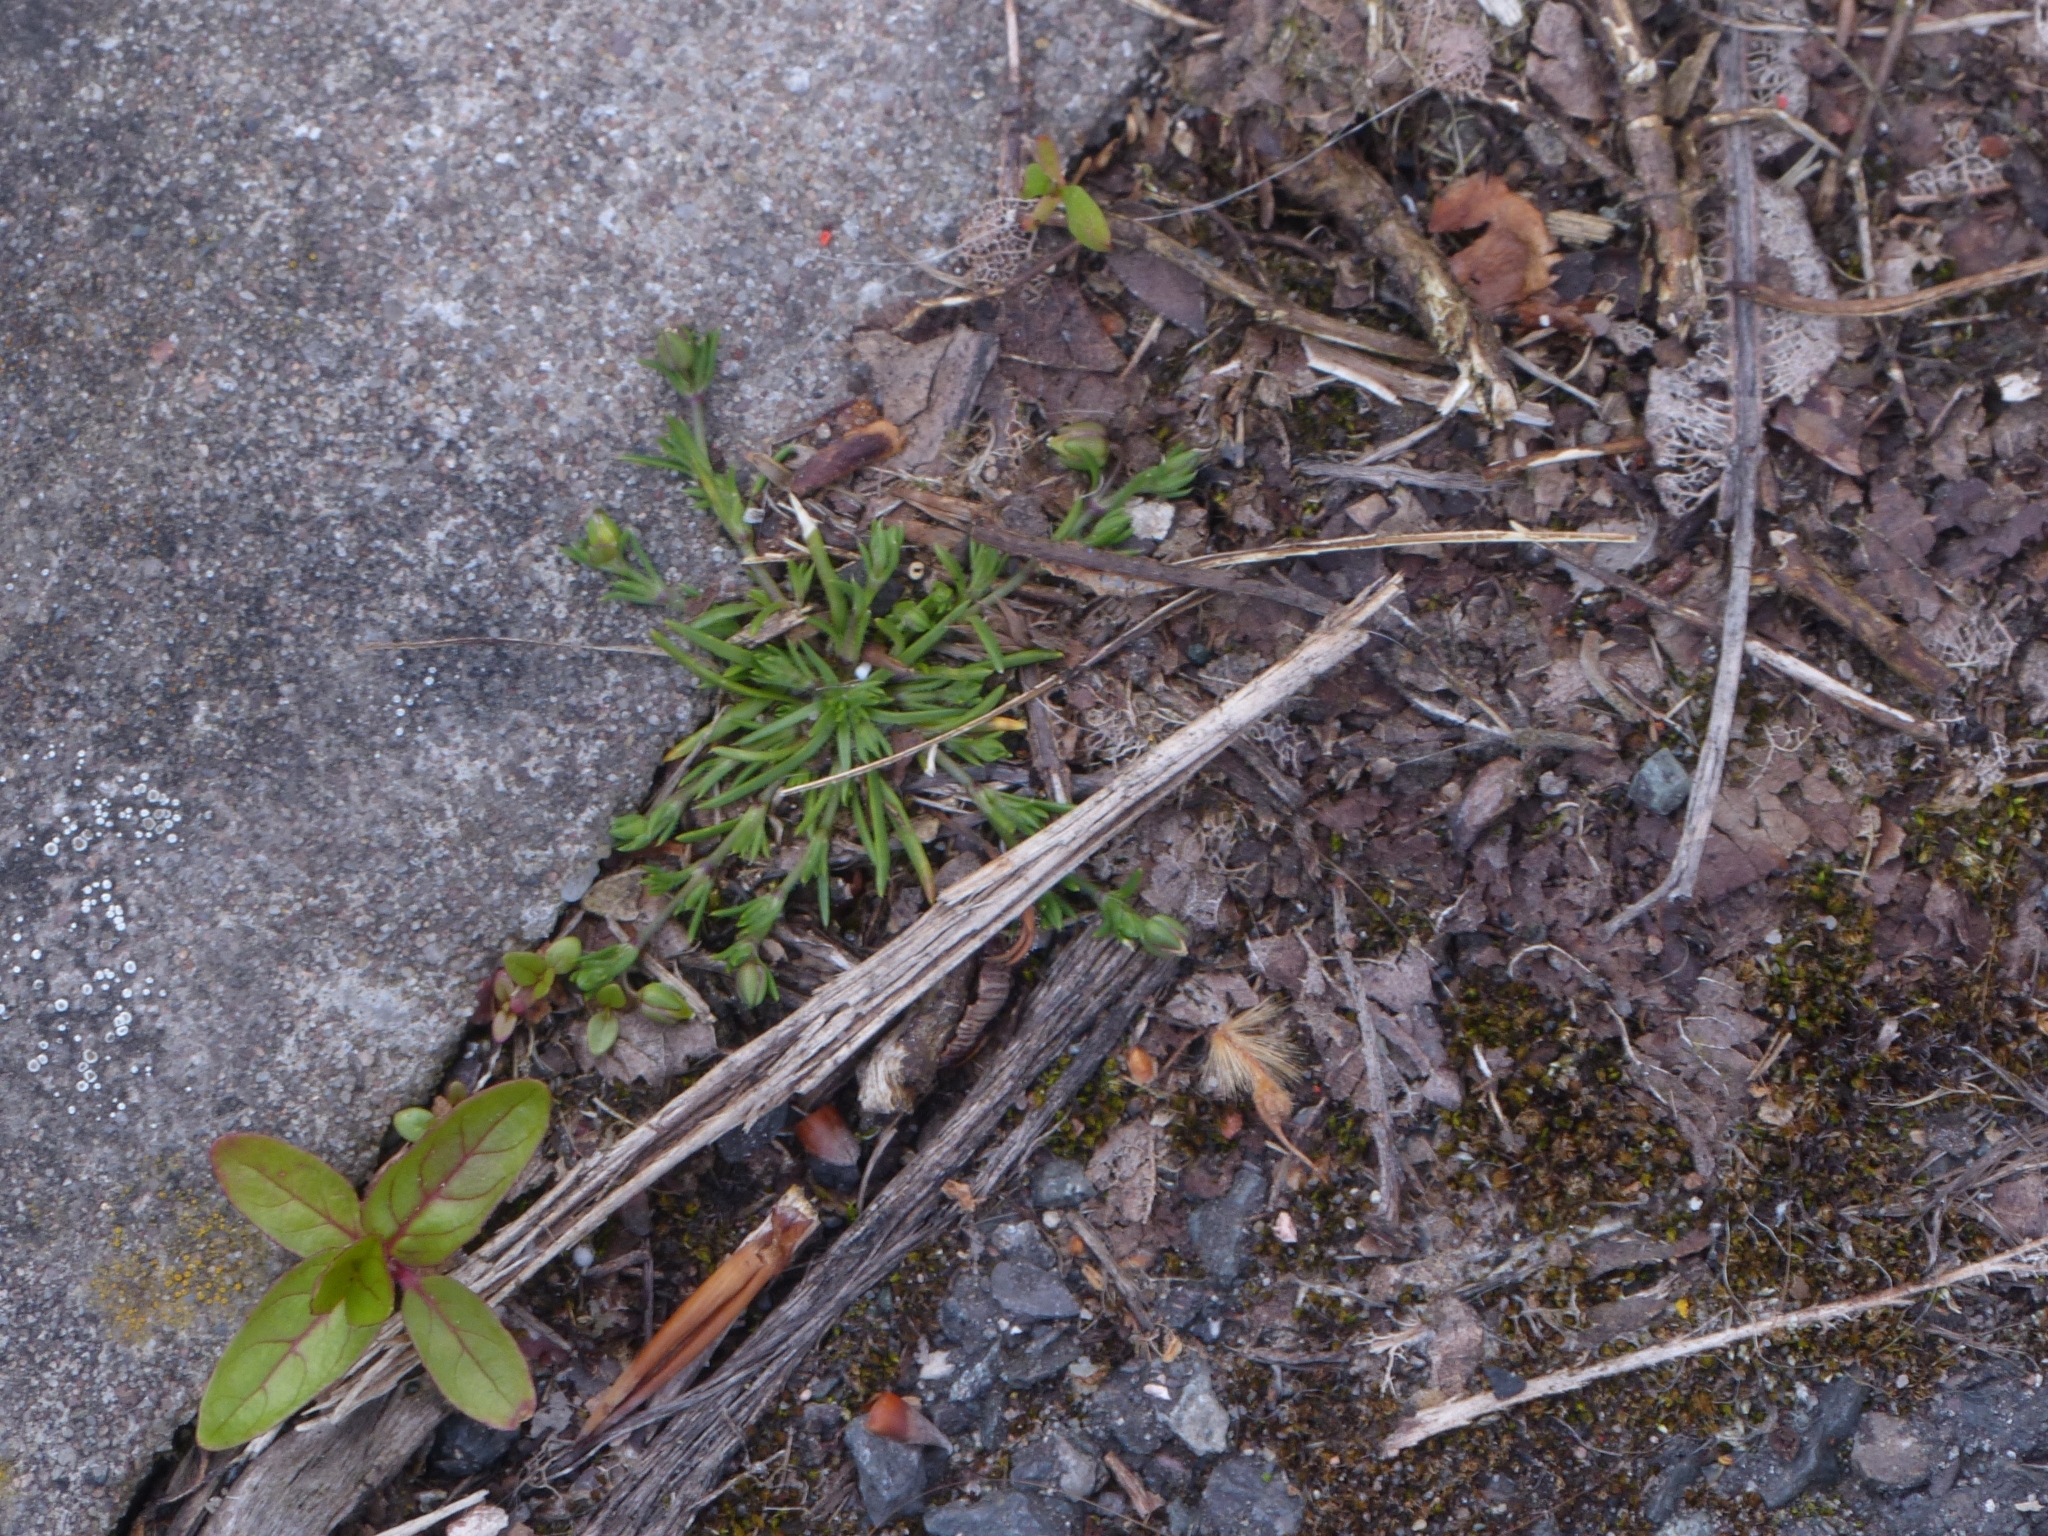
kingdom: Plantae
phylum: Tracheophyta
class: Magnoliopsida
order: Caryophyllales
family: Caryophyllaceae
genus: Sagina
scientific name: Sagina procumbens
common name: Procumbent pearlwort
